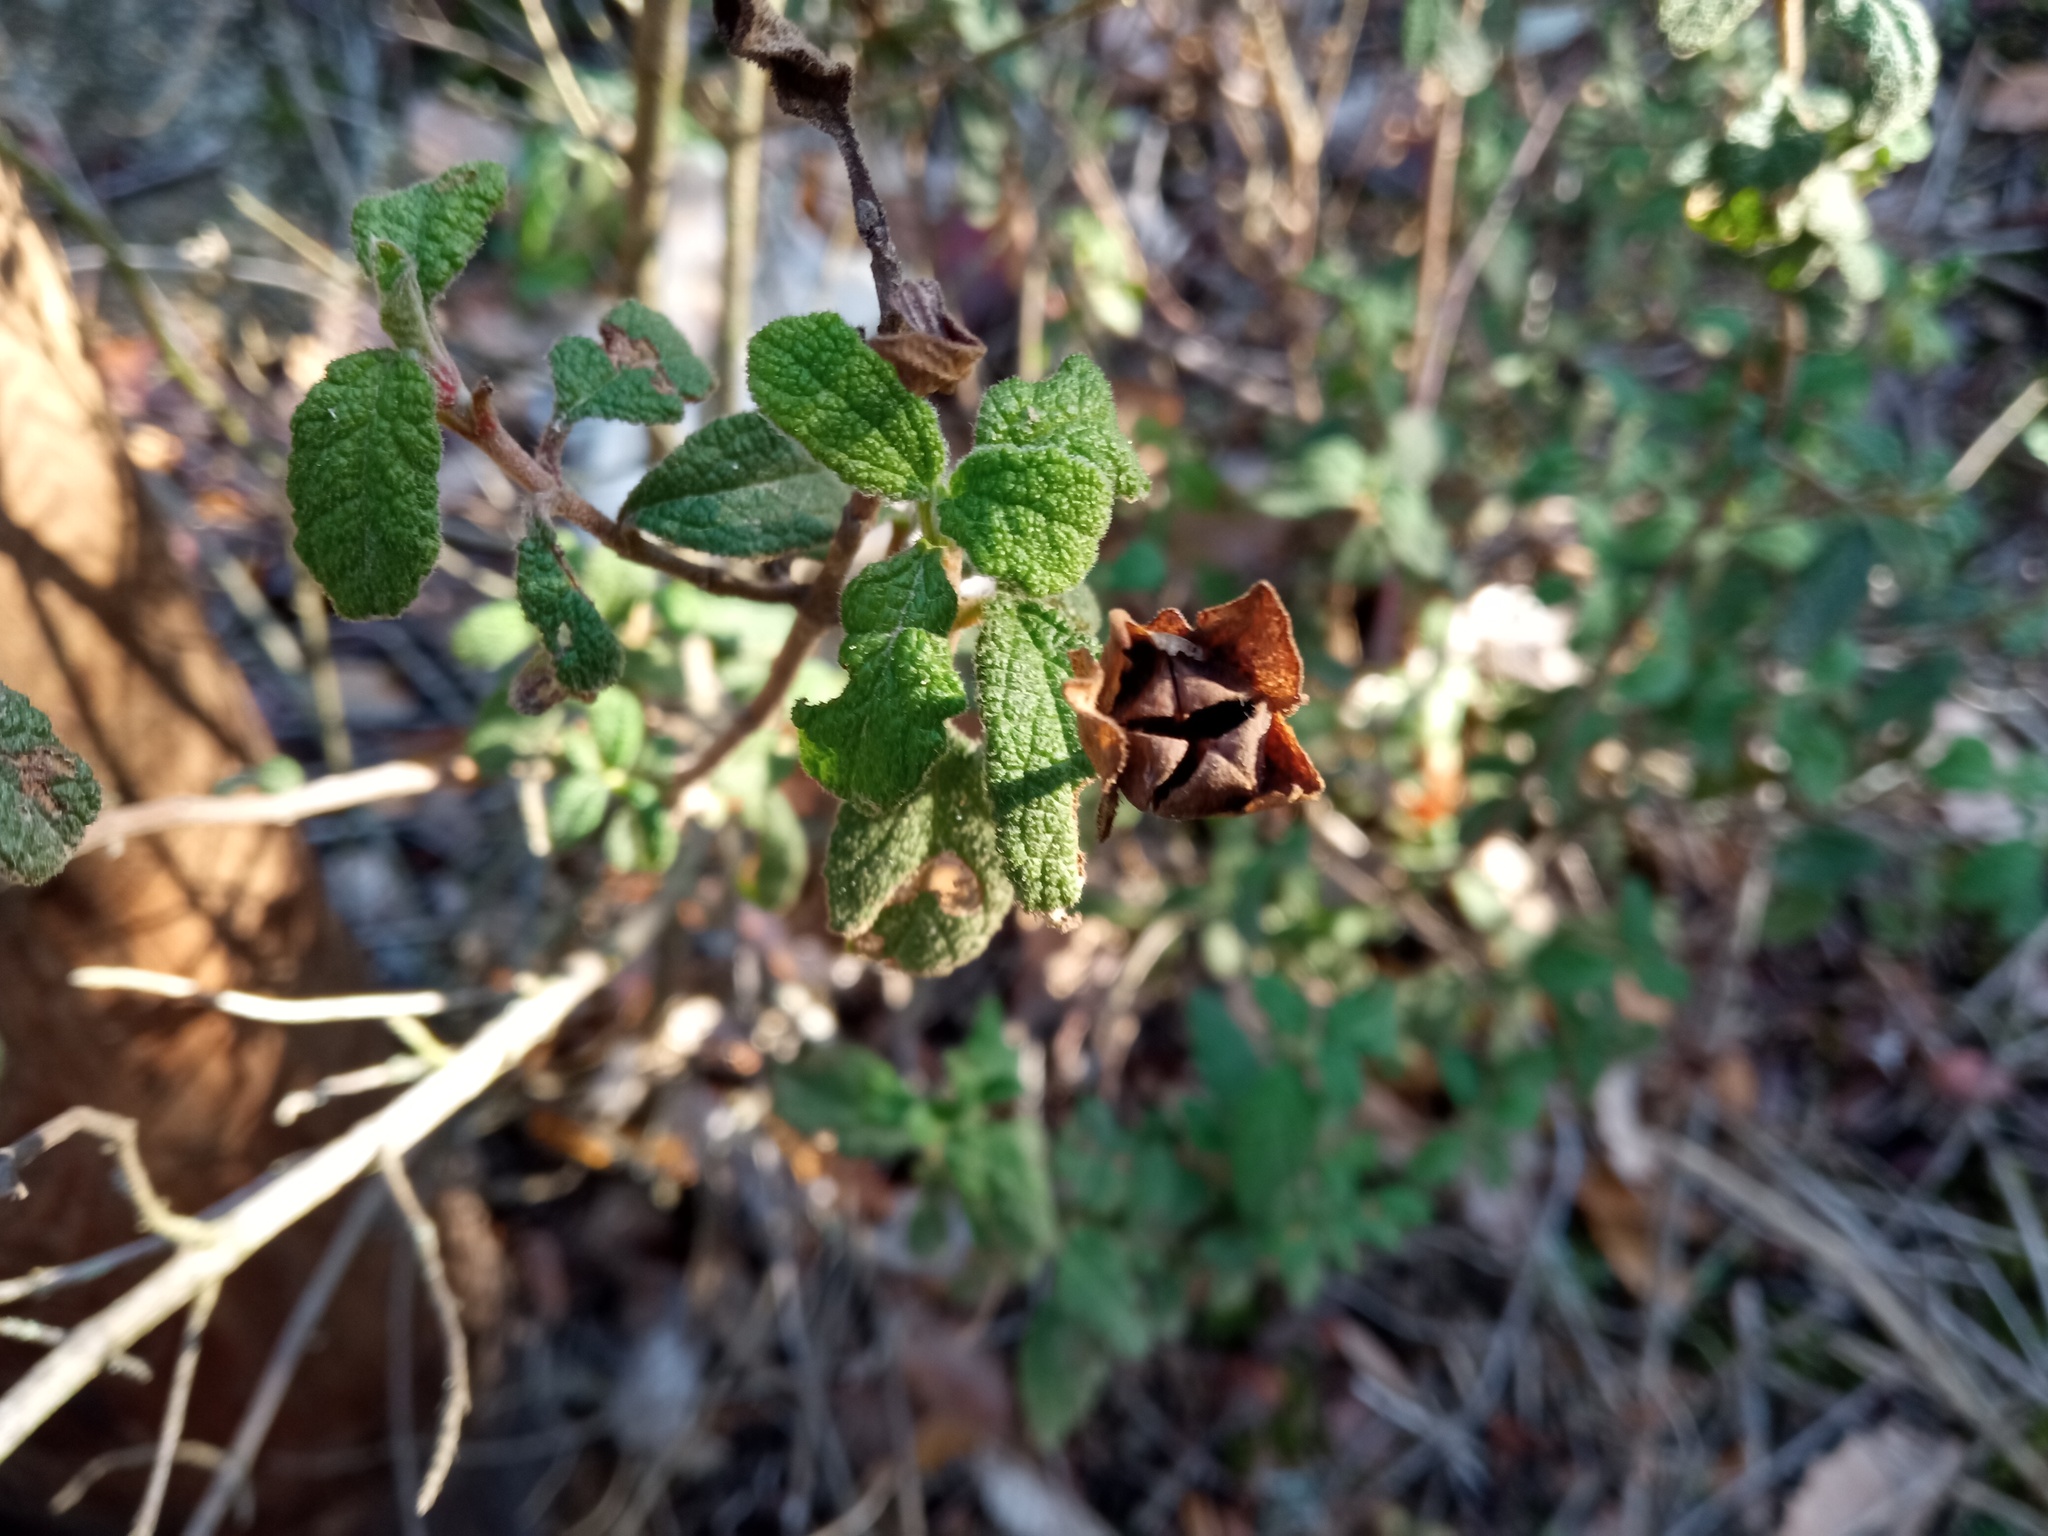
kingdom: Plantae
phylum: Tracheophyta
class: Magnoliopsida
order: Malvales
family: Cistaceae
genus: Cistus
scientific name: Cistus salviifolius
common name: Salvia cistus
